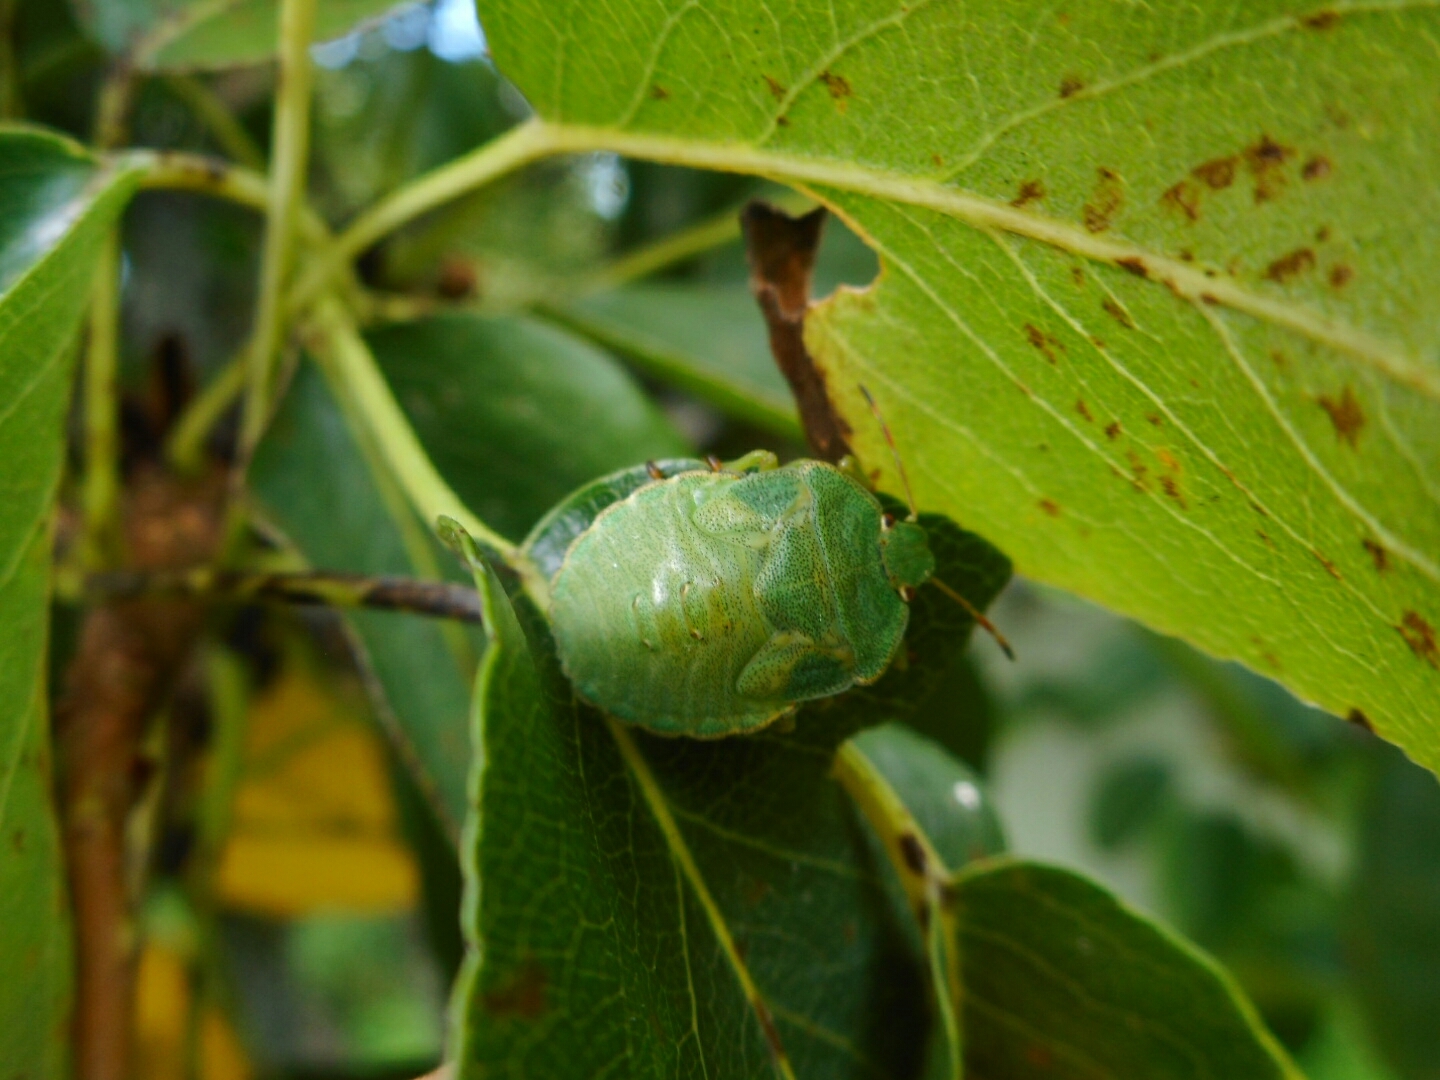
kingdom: Animalia
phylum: Arthropoda
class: Insecta
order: Hemiptera
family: Pentatomidae
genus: Palomena
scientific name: Palomena prasina
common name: Green shieldbug
